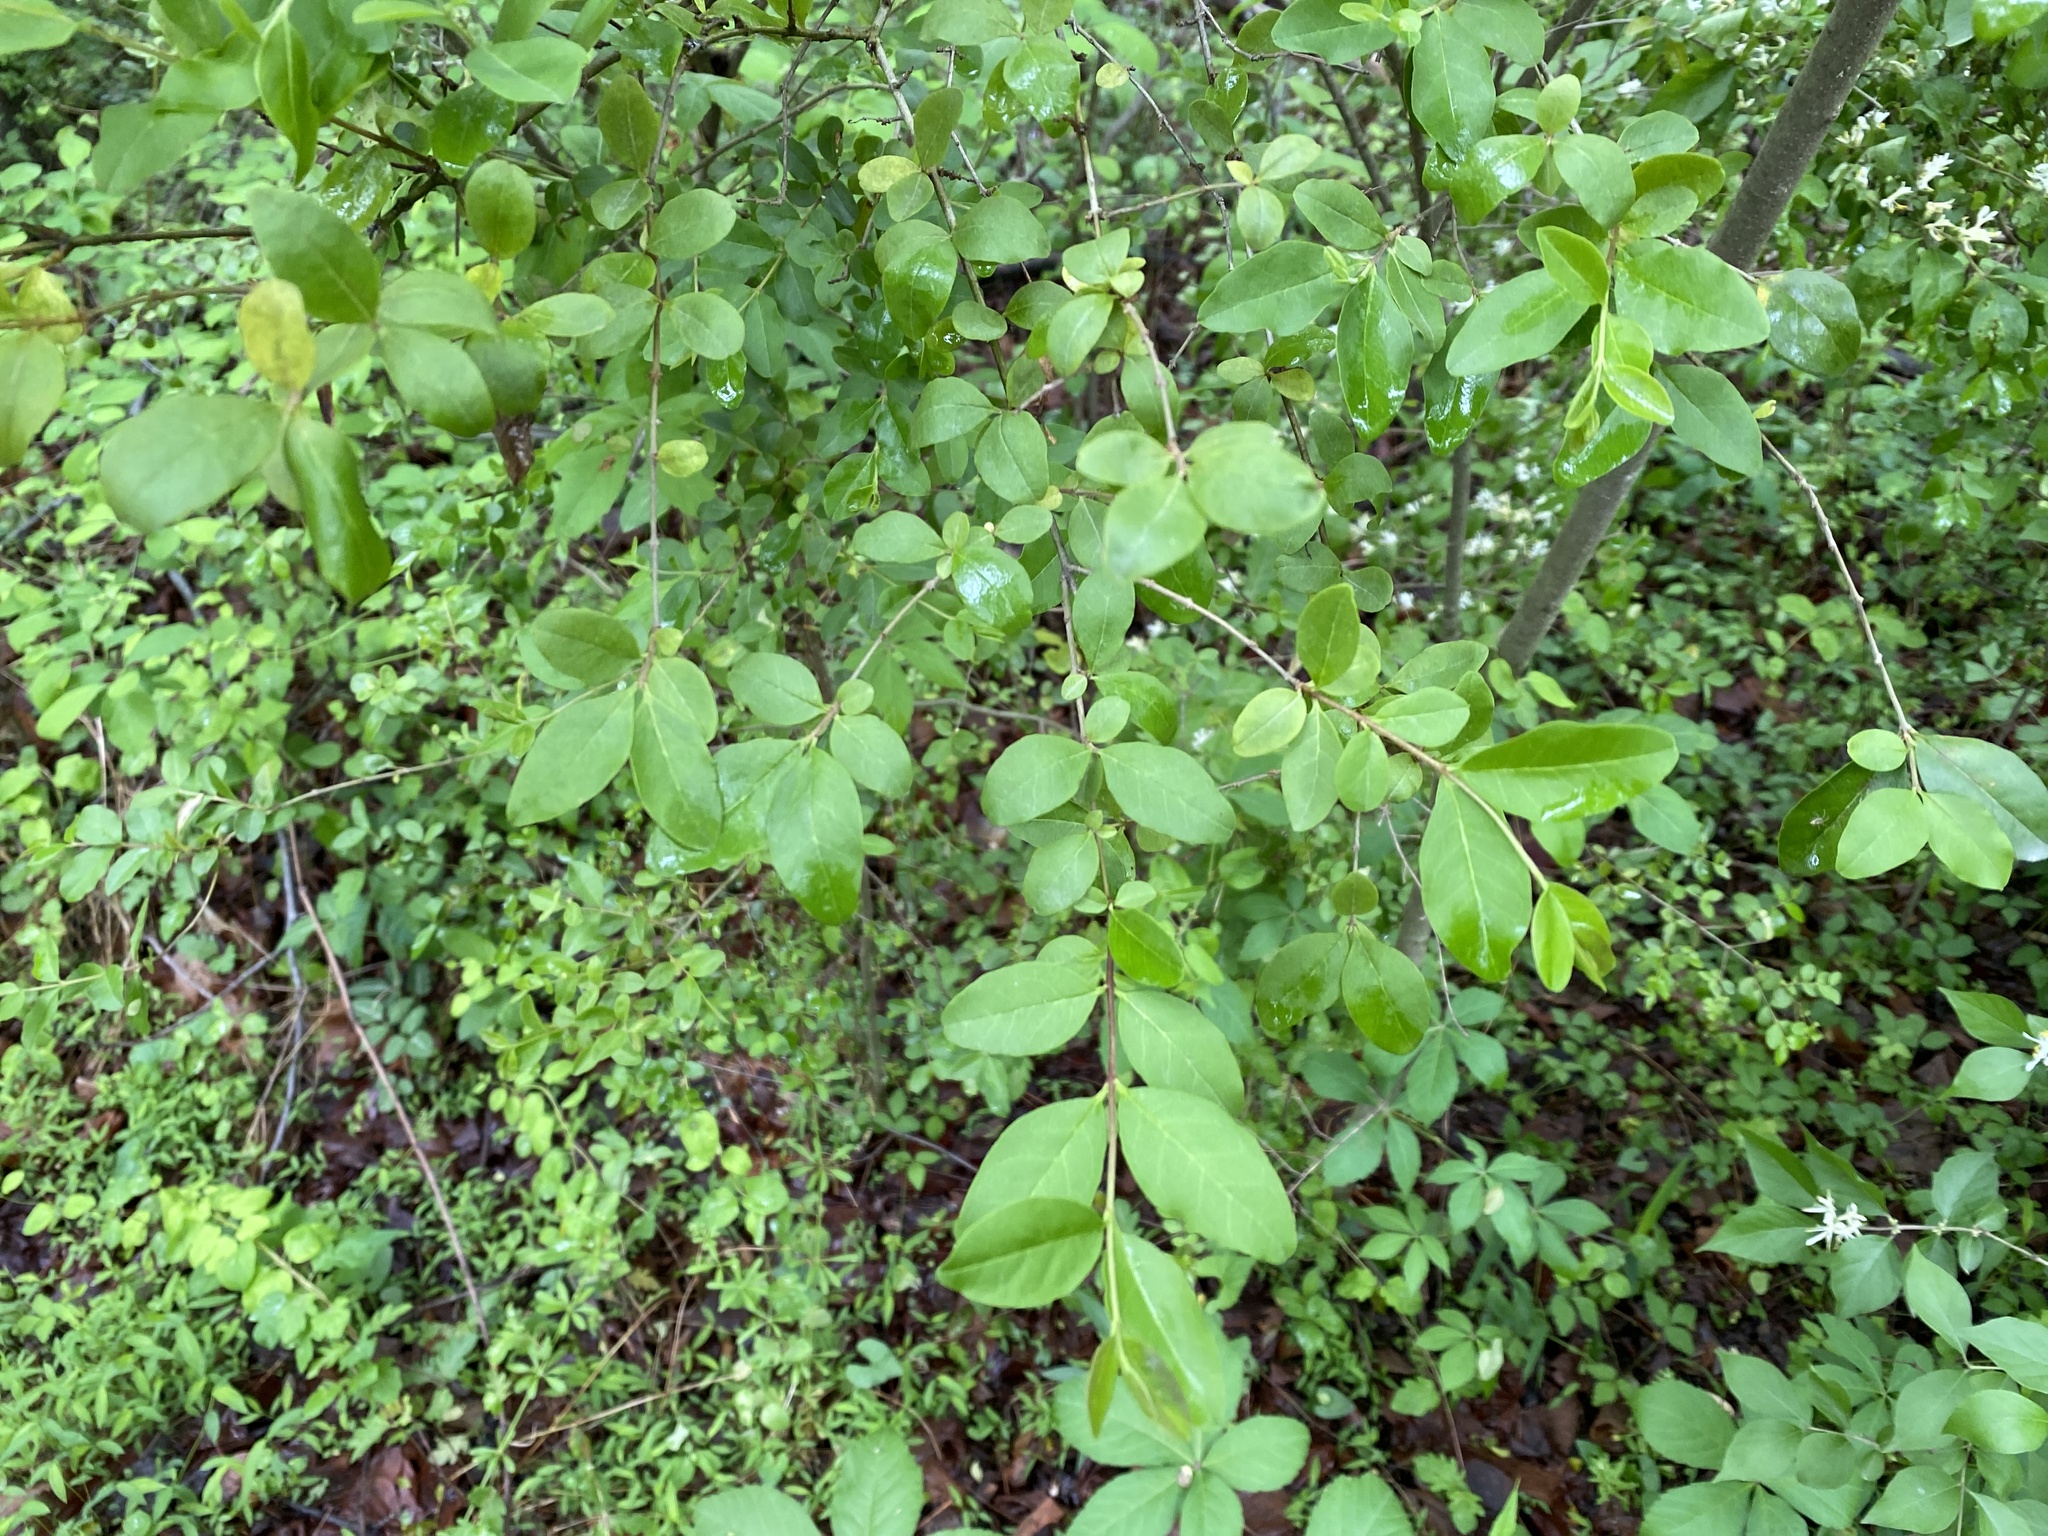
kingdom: Plantae
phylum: Tracheophyta
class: Magnoliopsida
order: Lamiales
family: Oleaceae
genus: Ligustrum
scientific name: Ligustrum sinense
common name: Chinese privet
